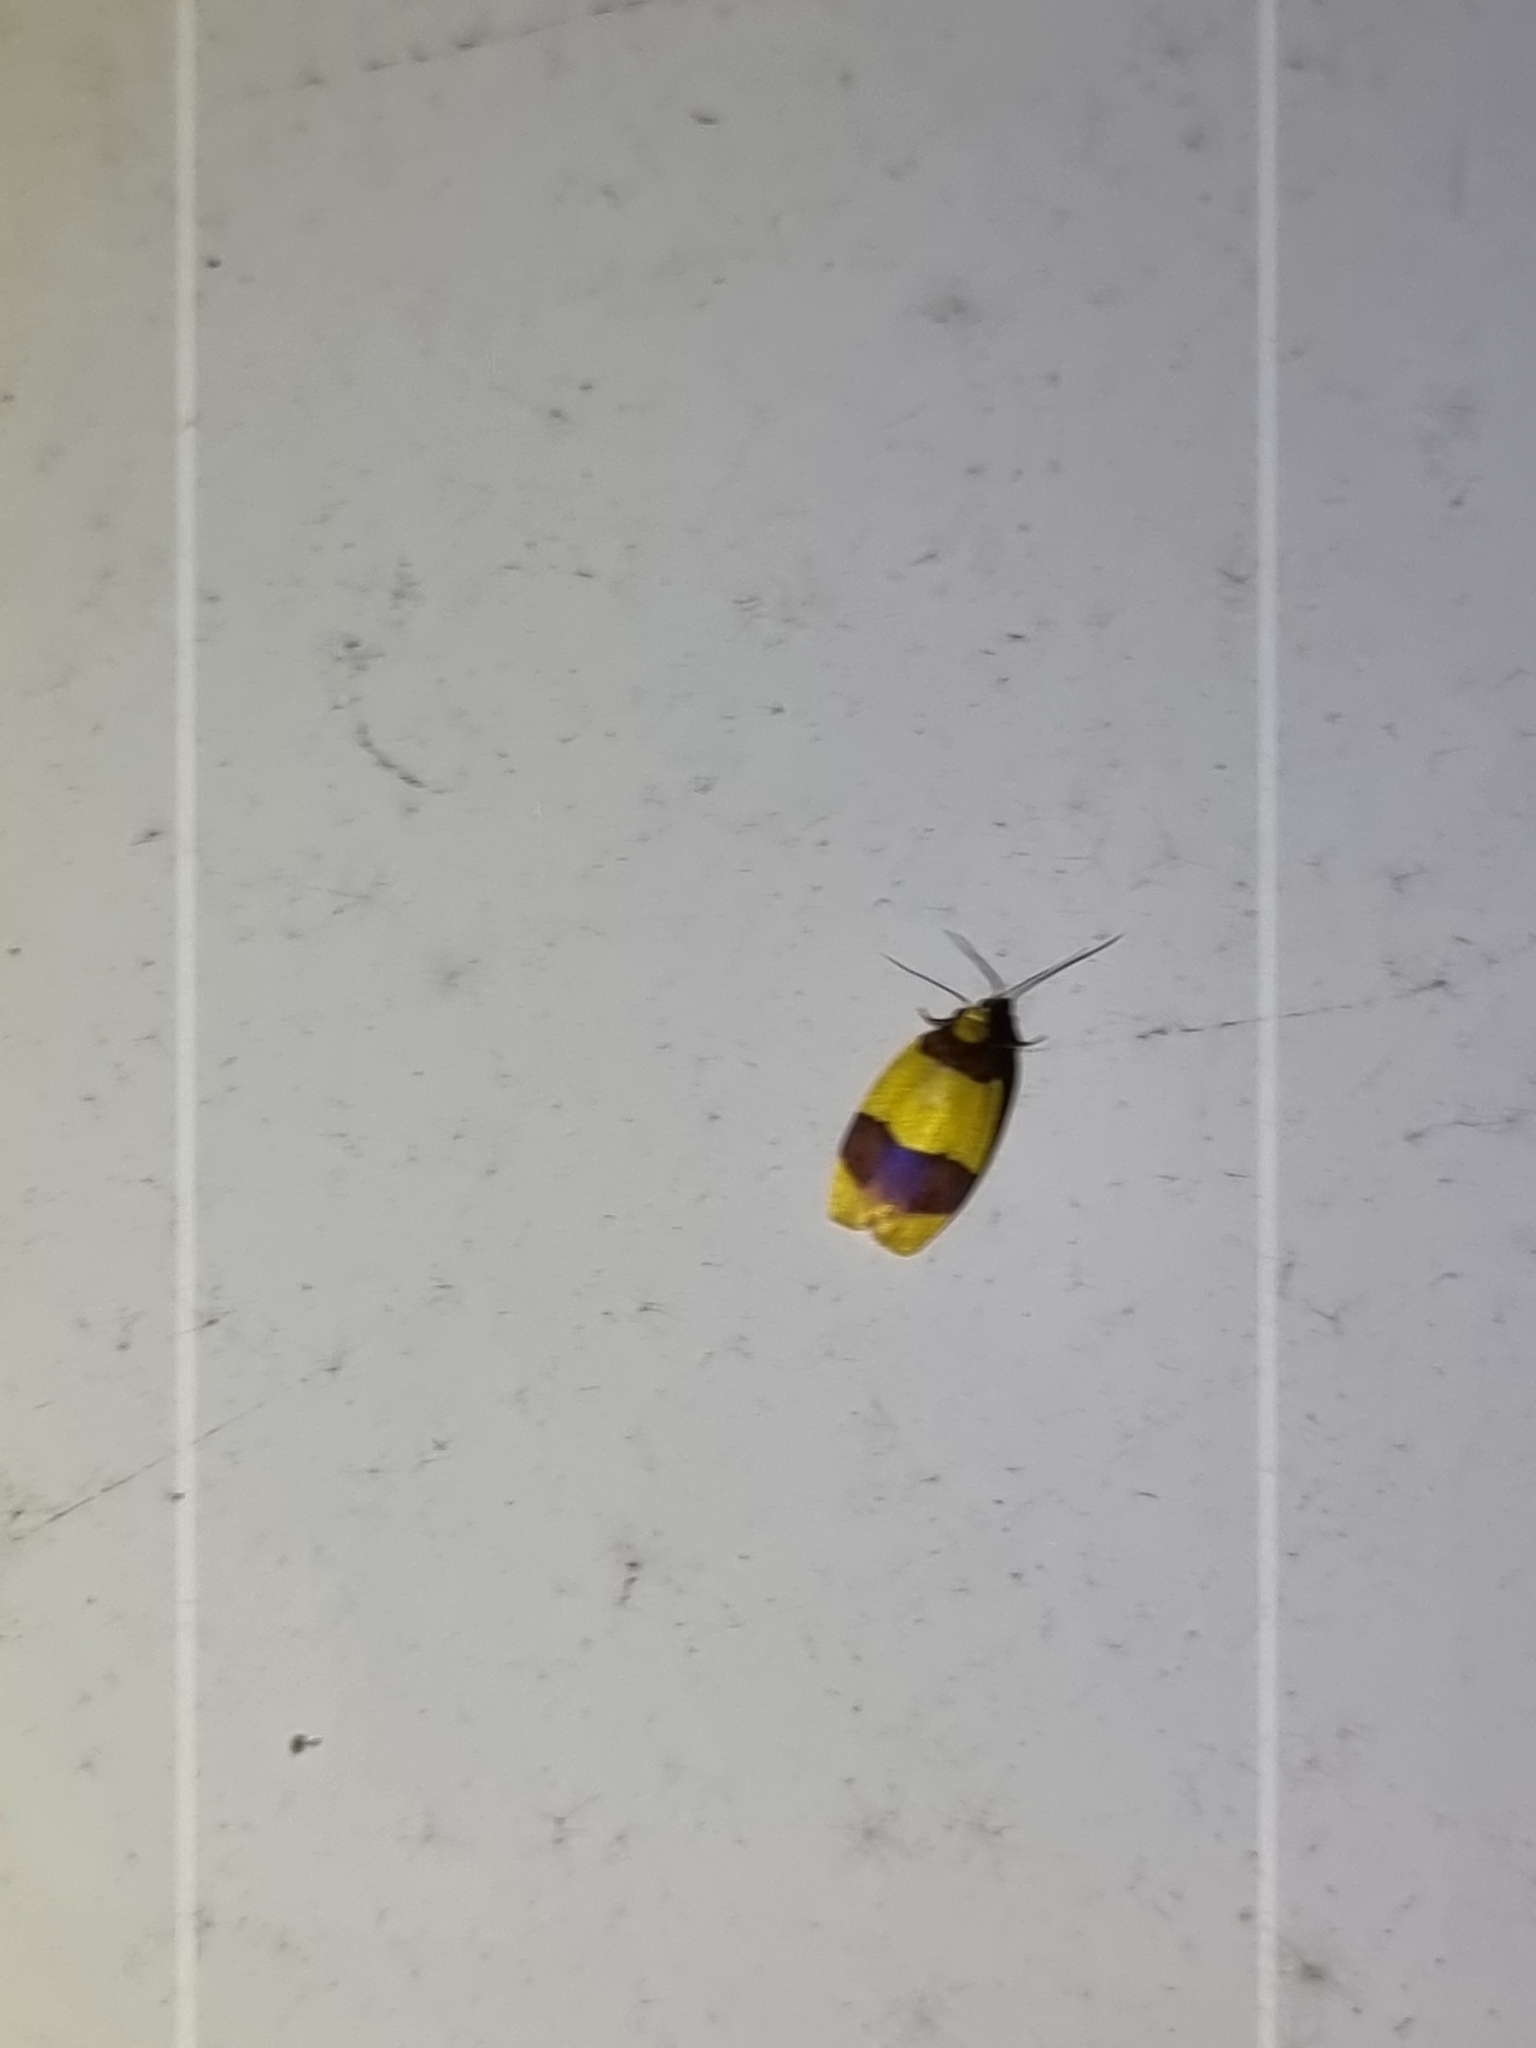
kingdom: Animalia
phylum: Arthropoda
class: Insecta
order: Lepidoptera
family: Erebidae
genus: Heterallactis
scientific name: Heterallactis euchrysa
